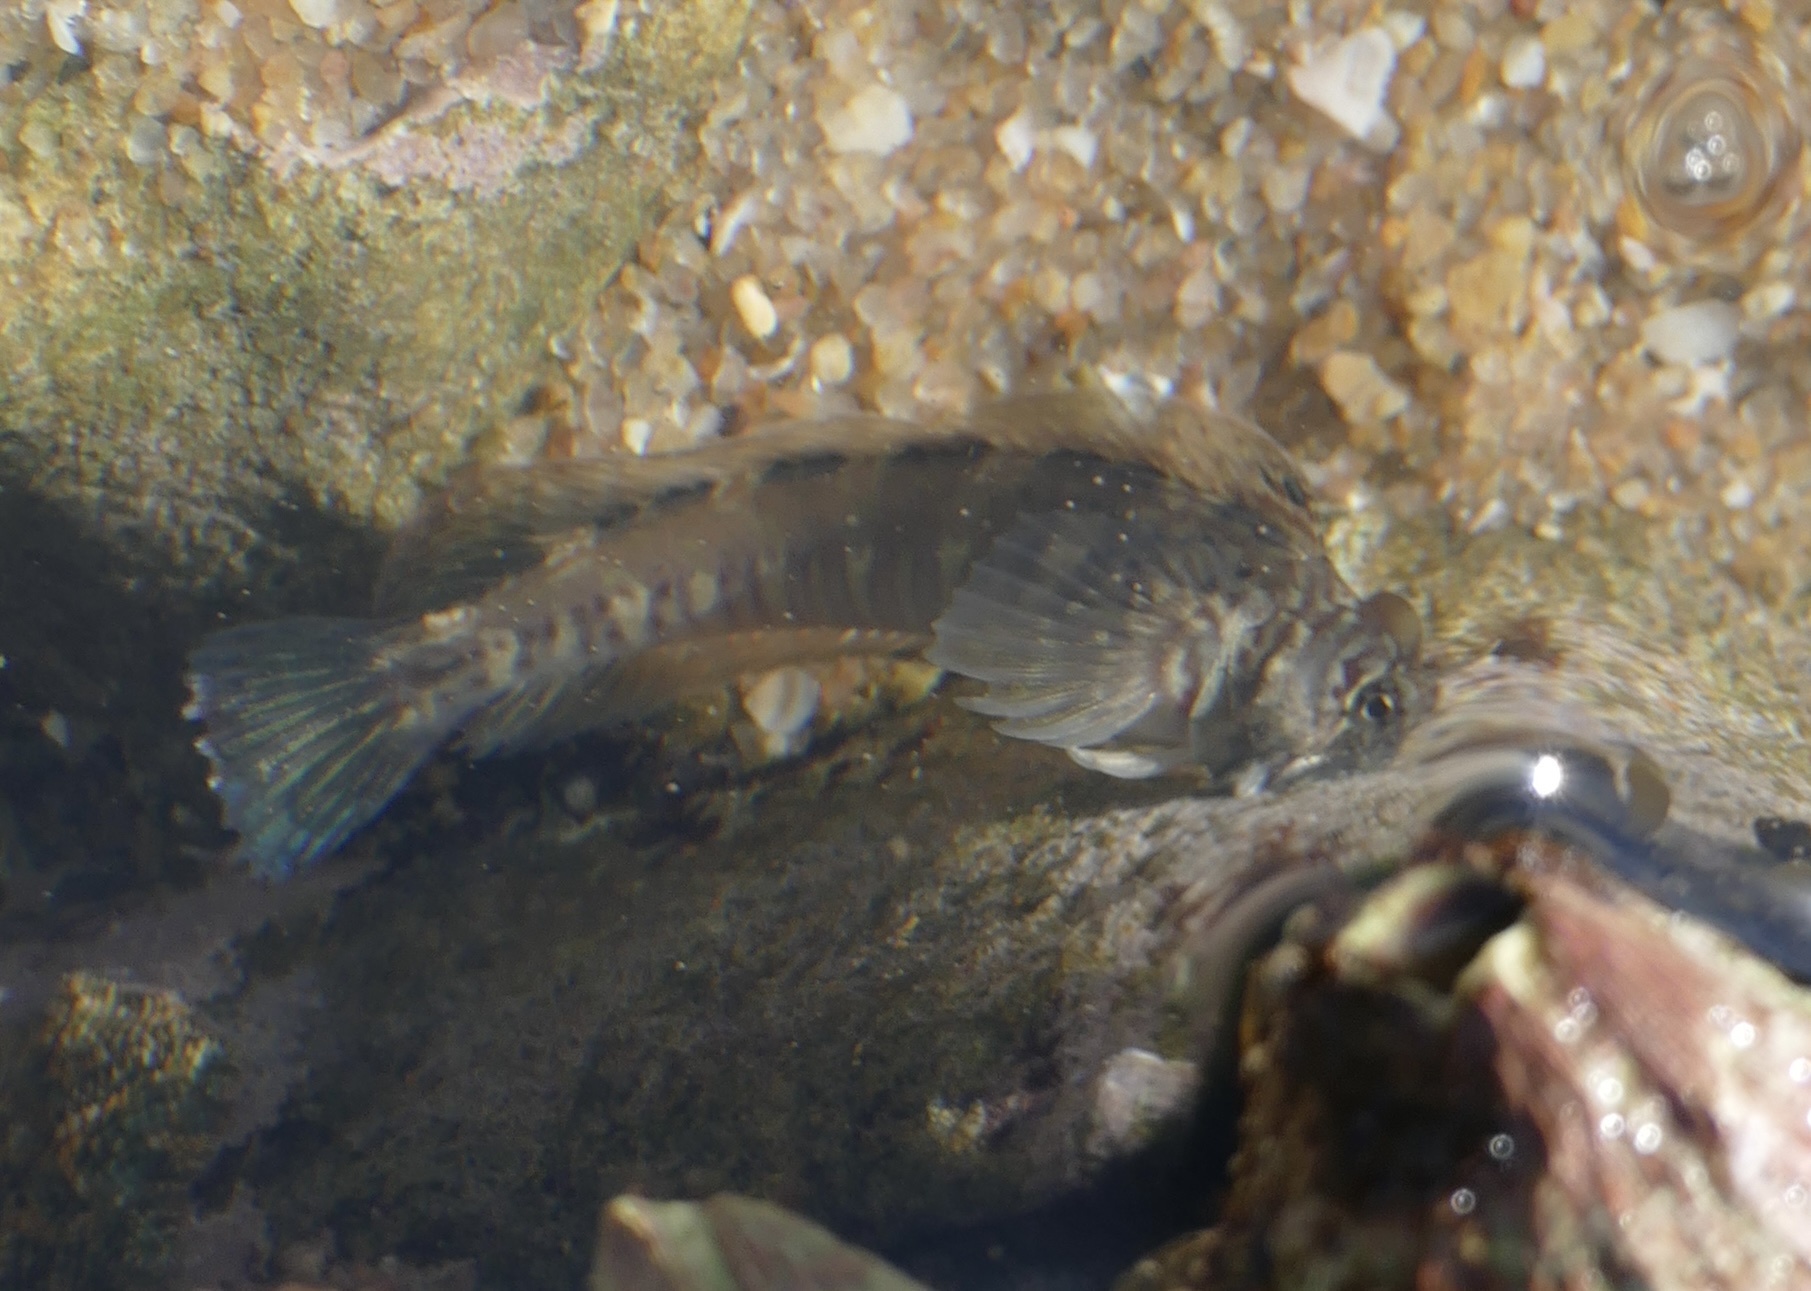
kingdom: Animalia
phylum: Chordata
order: Perciformes
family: Blenniidae
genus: Istiblennius
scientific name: Istiblennius dussumieri
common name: Dussumier's rockskipper
